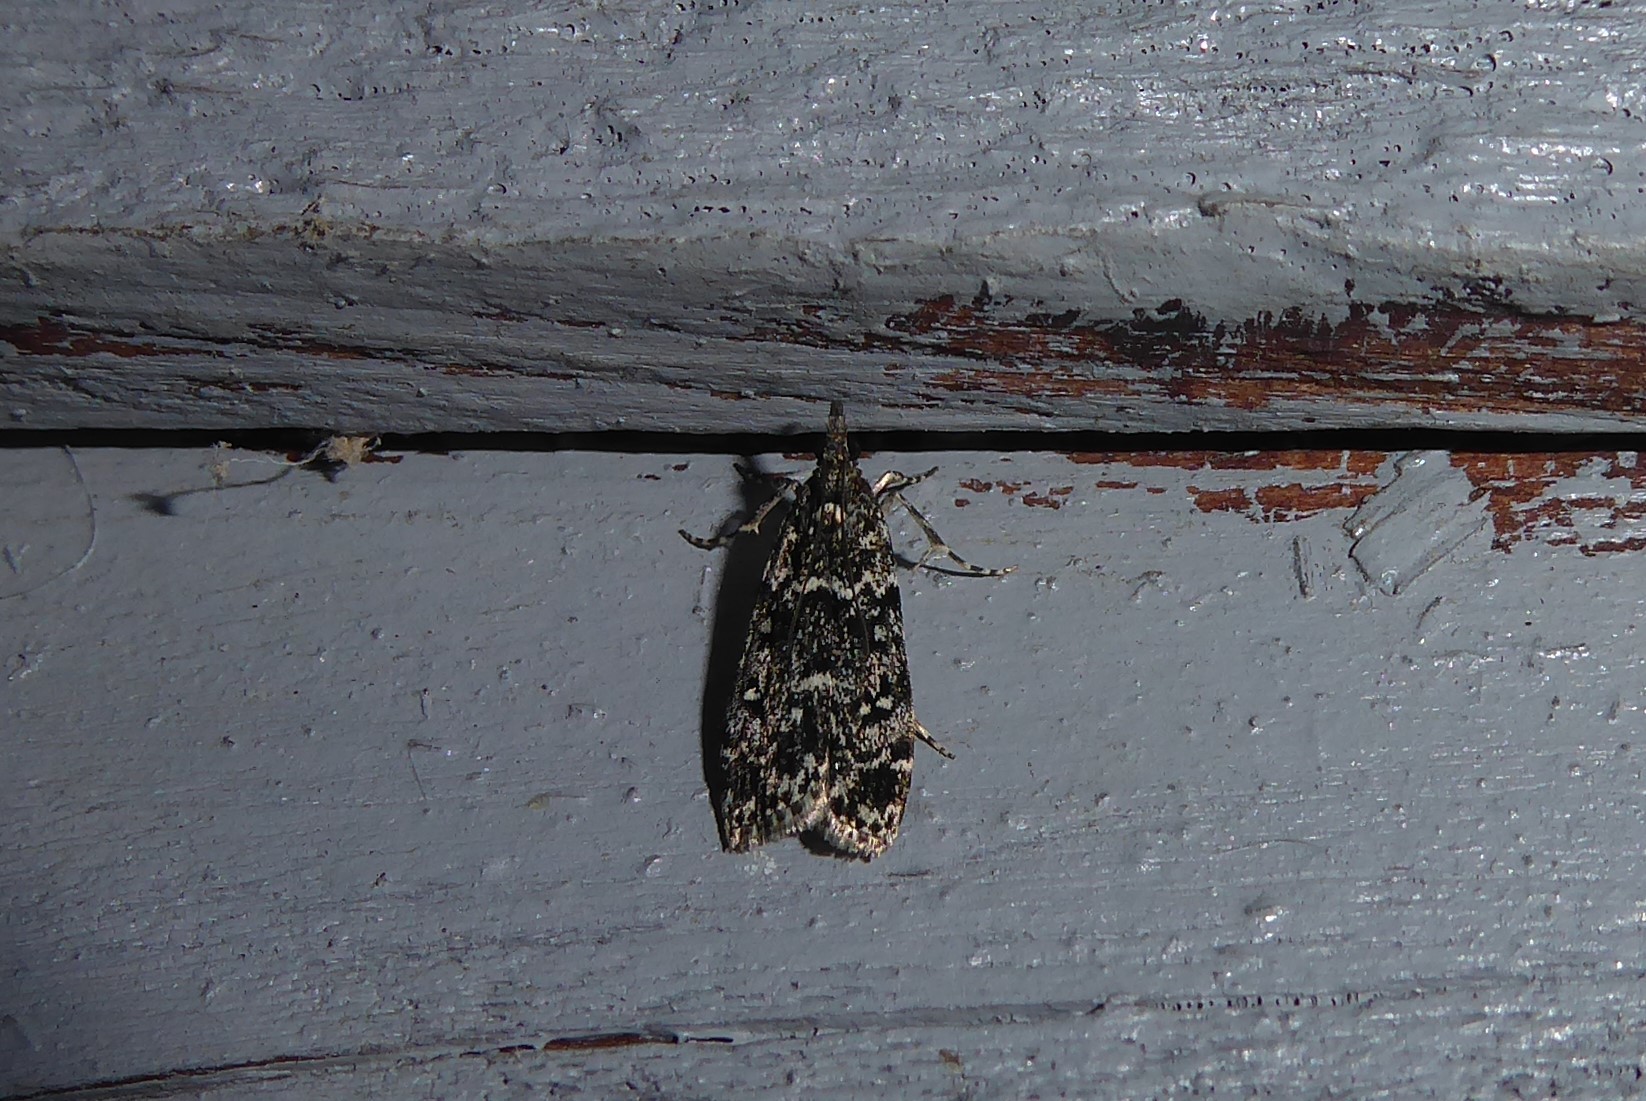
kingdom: Animalia
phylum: Arthropoda
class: Insecta
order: Lepidoptera
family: Crambidae
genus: Eudonia
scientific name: Eudonia philerga
